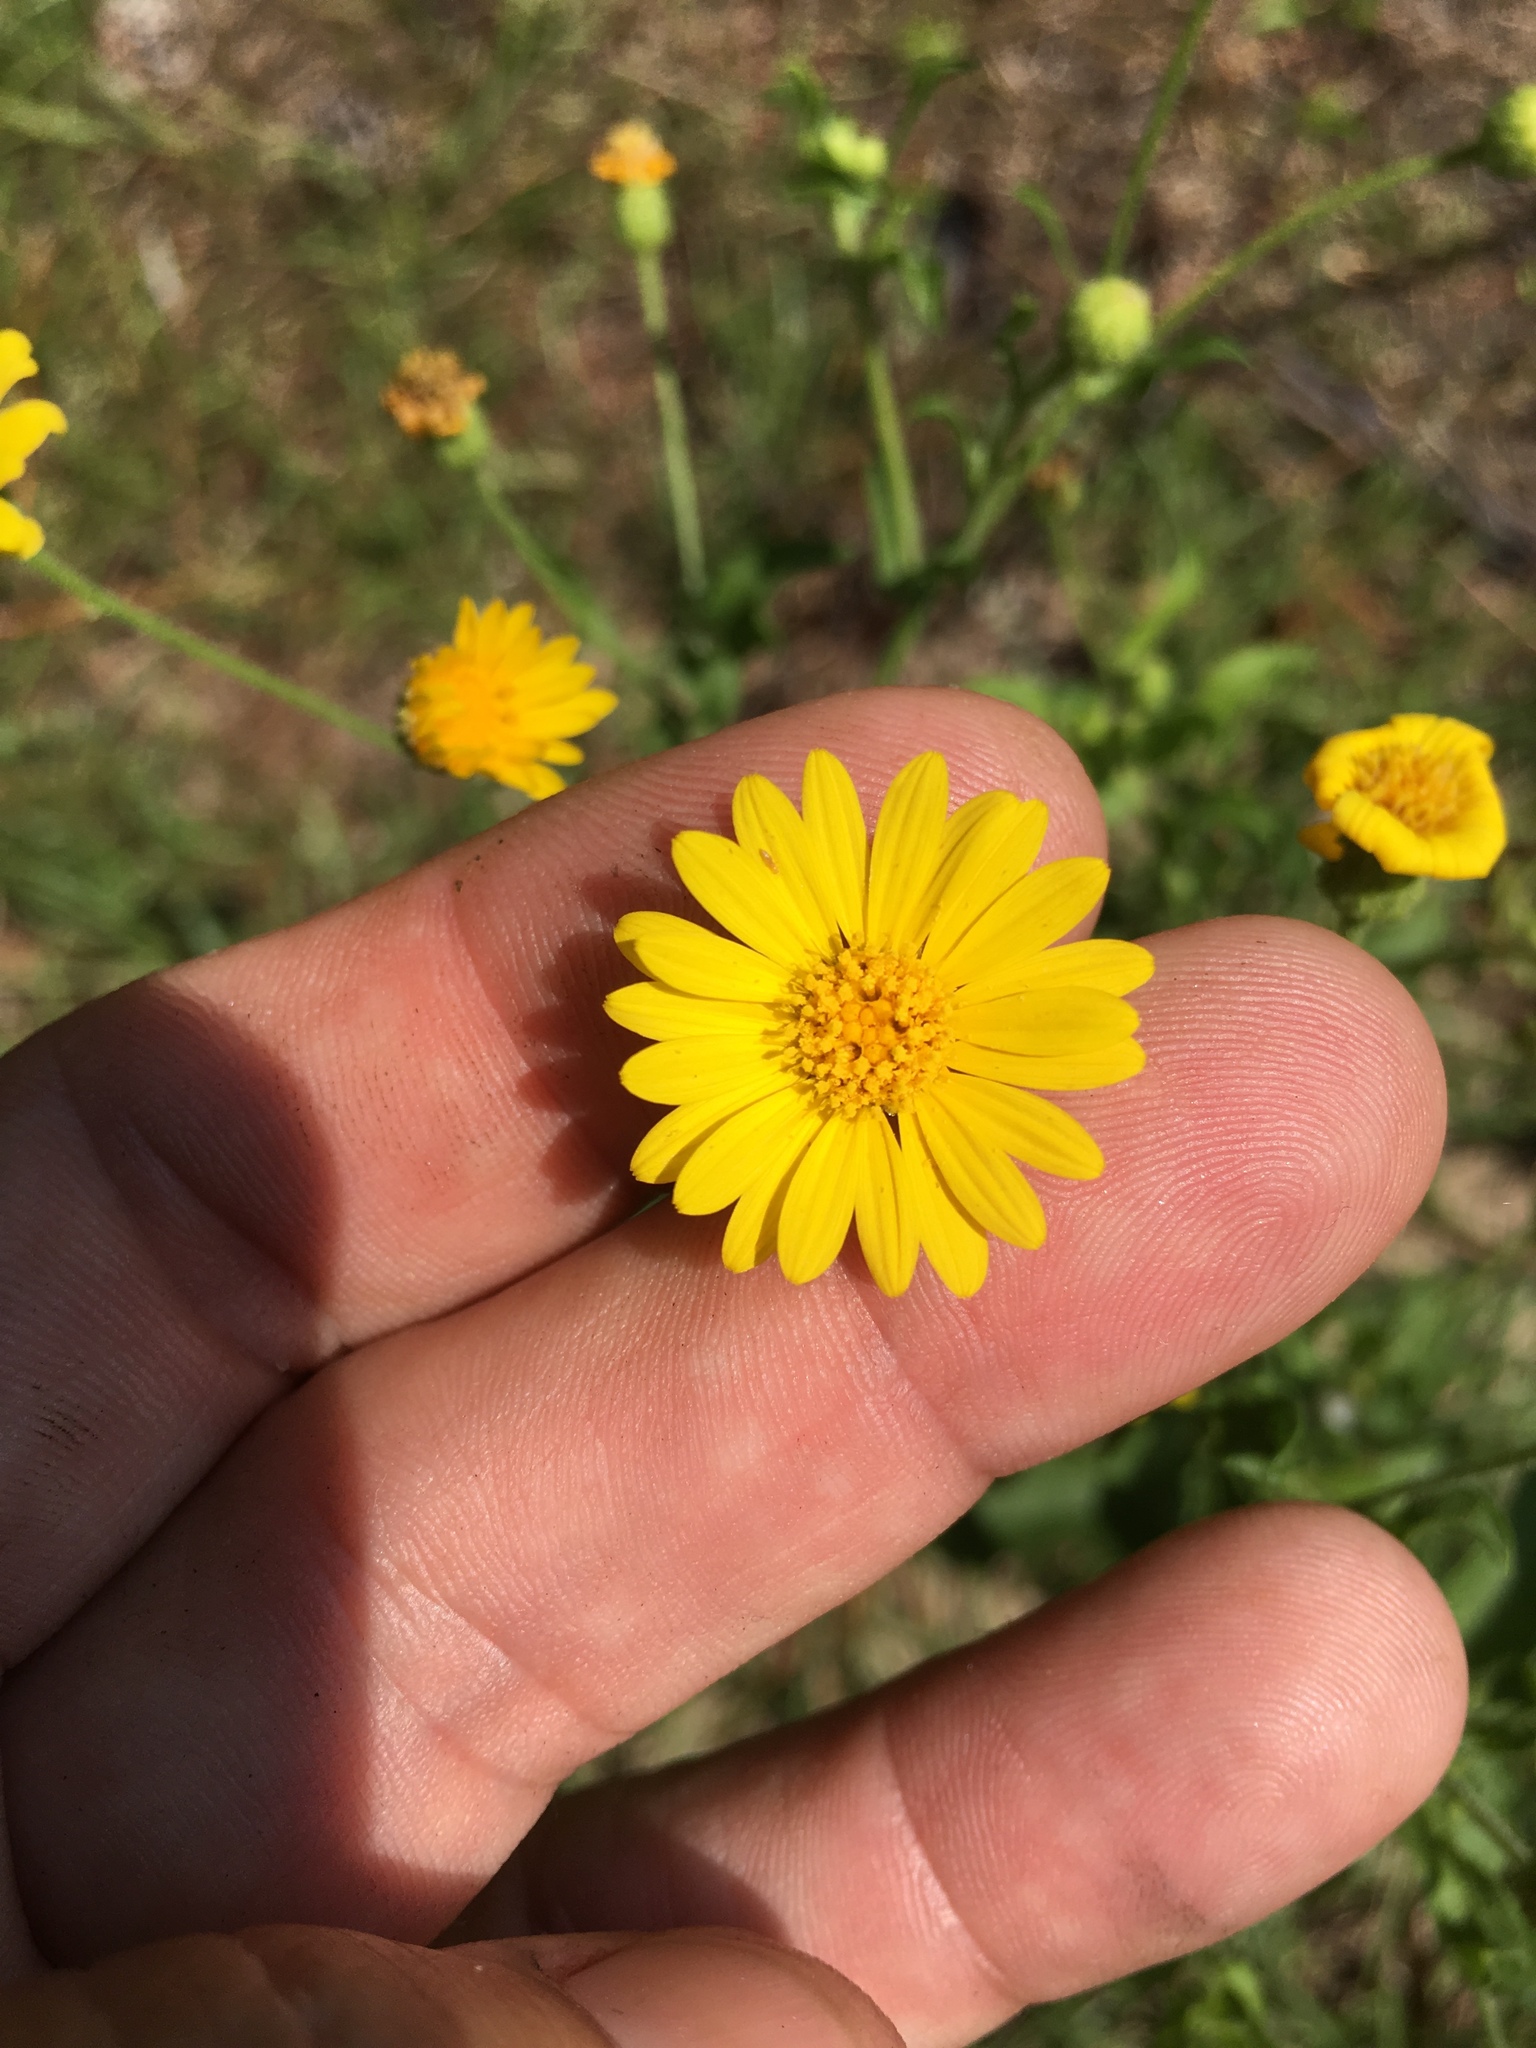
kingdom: Plantae
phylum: Tracheophyta
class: Magnoliopsida
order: Asterales
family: Asteraceae
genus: Heterotheca
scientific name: Heterotheca subaxillaris
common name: Camphorweed
